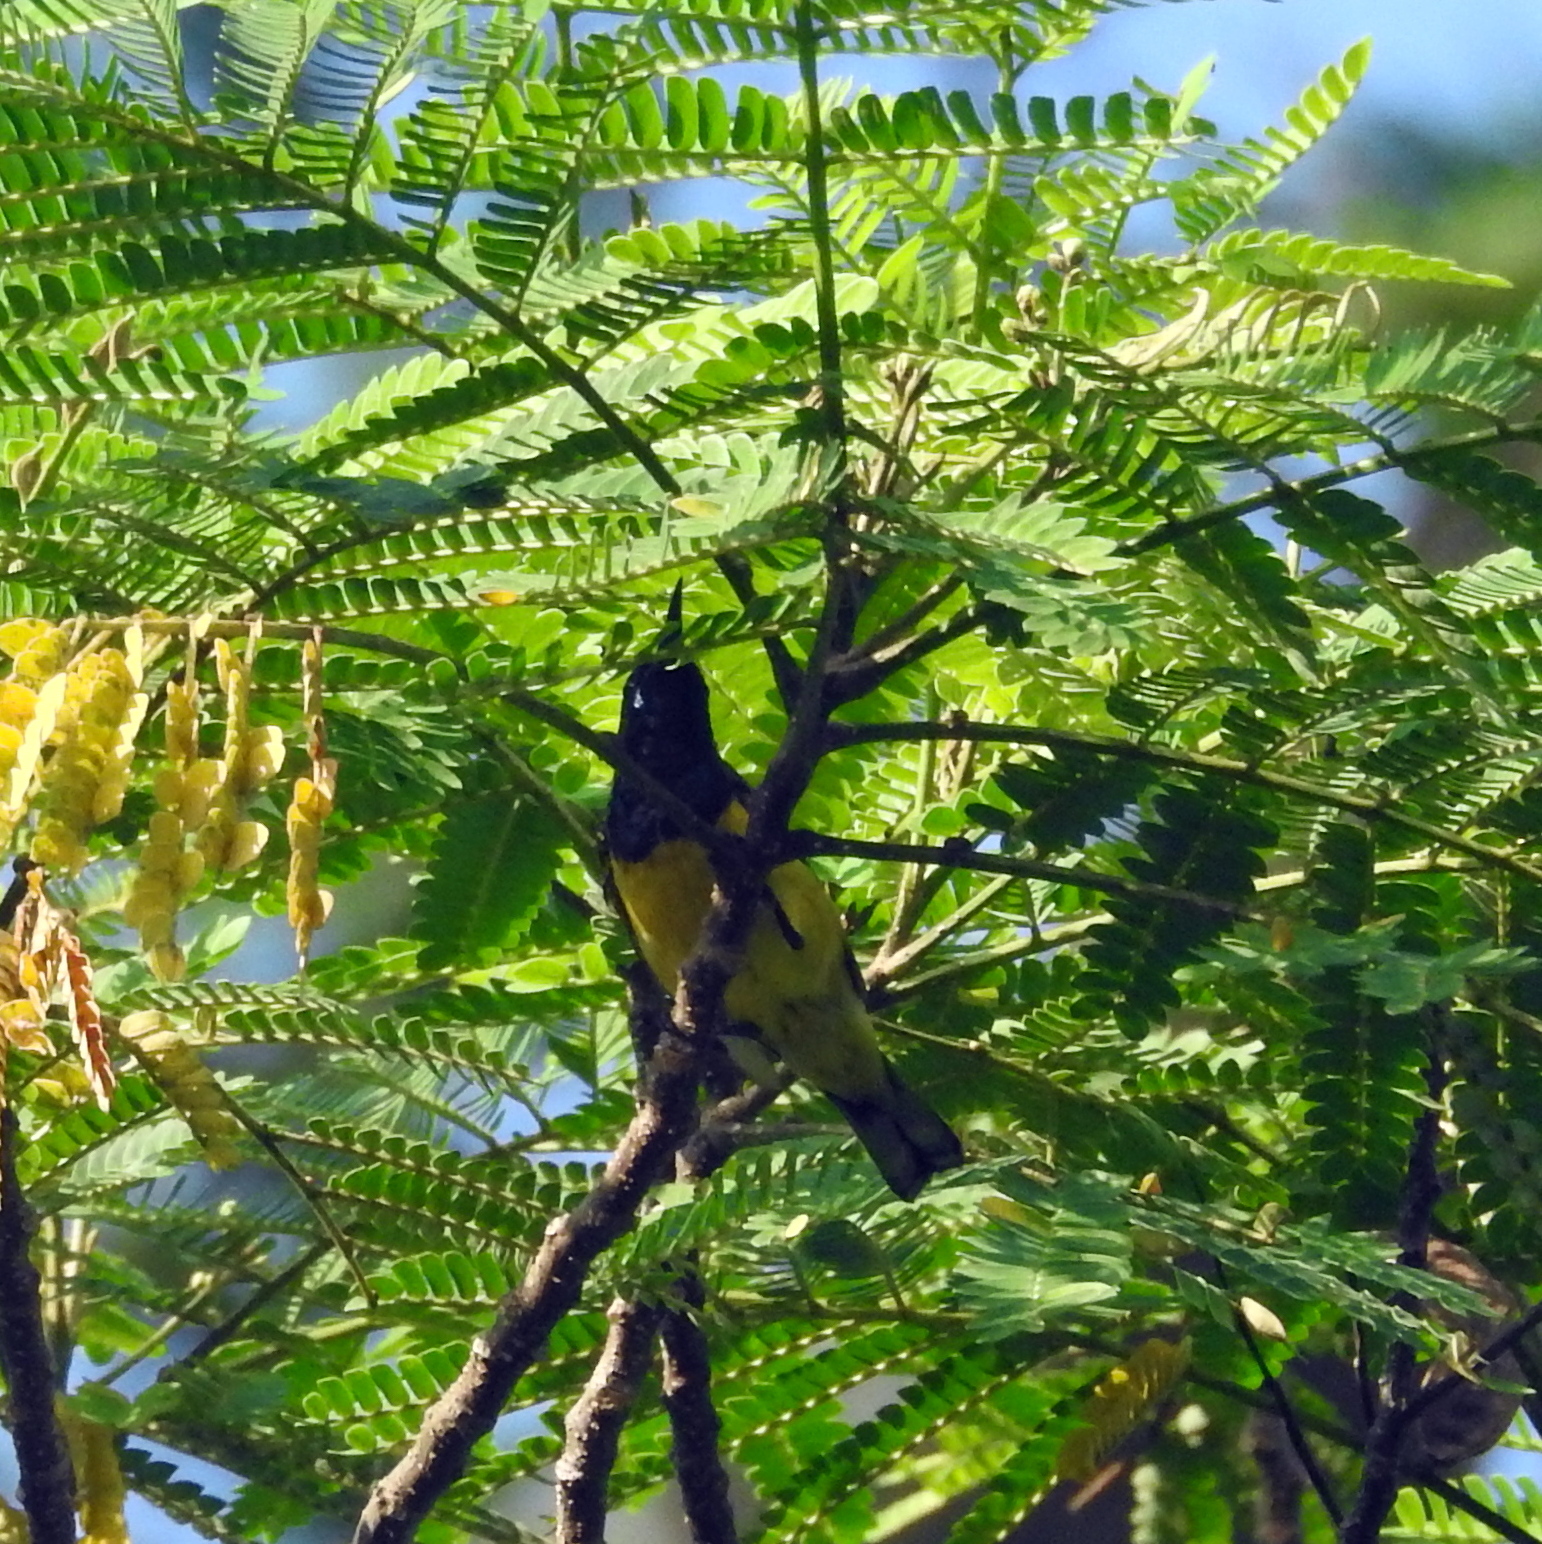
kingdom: Animalia
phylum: Chordata
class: Aves
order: Passeriformes
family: Nectariniidae
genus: Cinnyris
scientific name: Cinnyris
